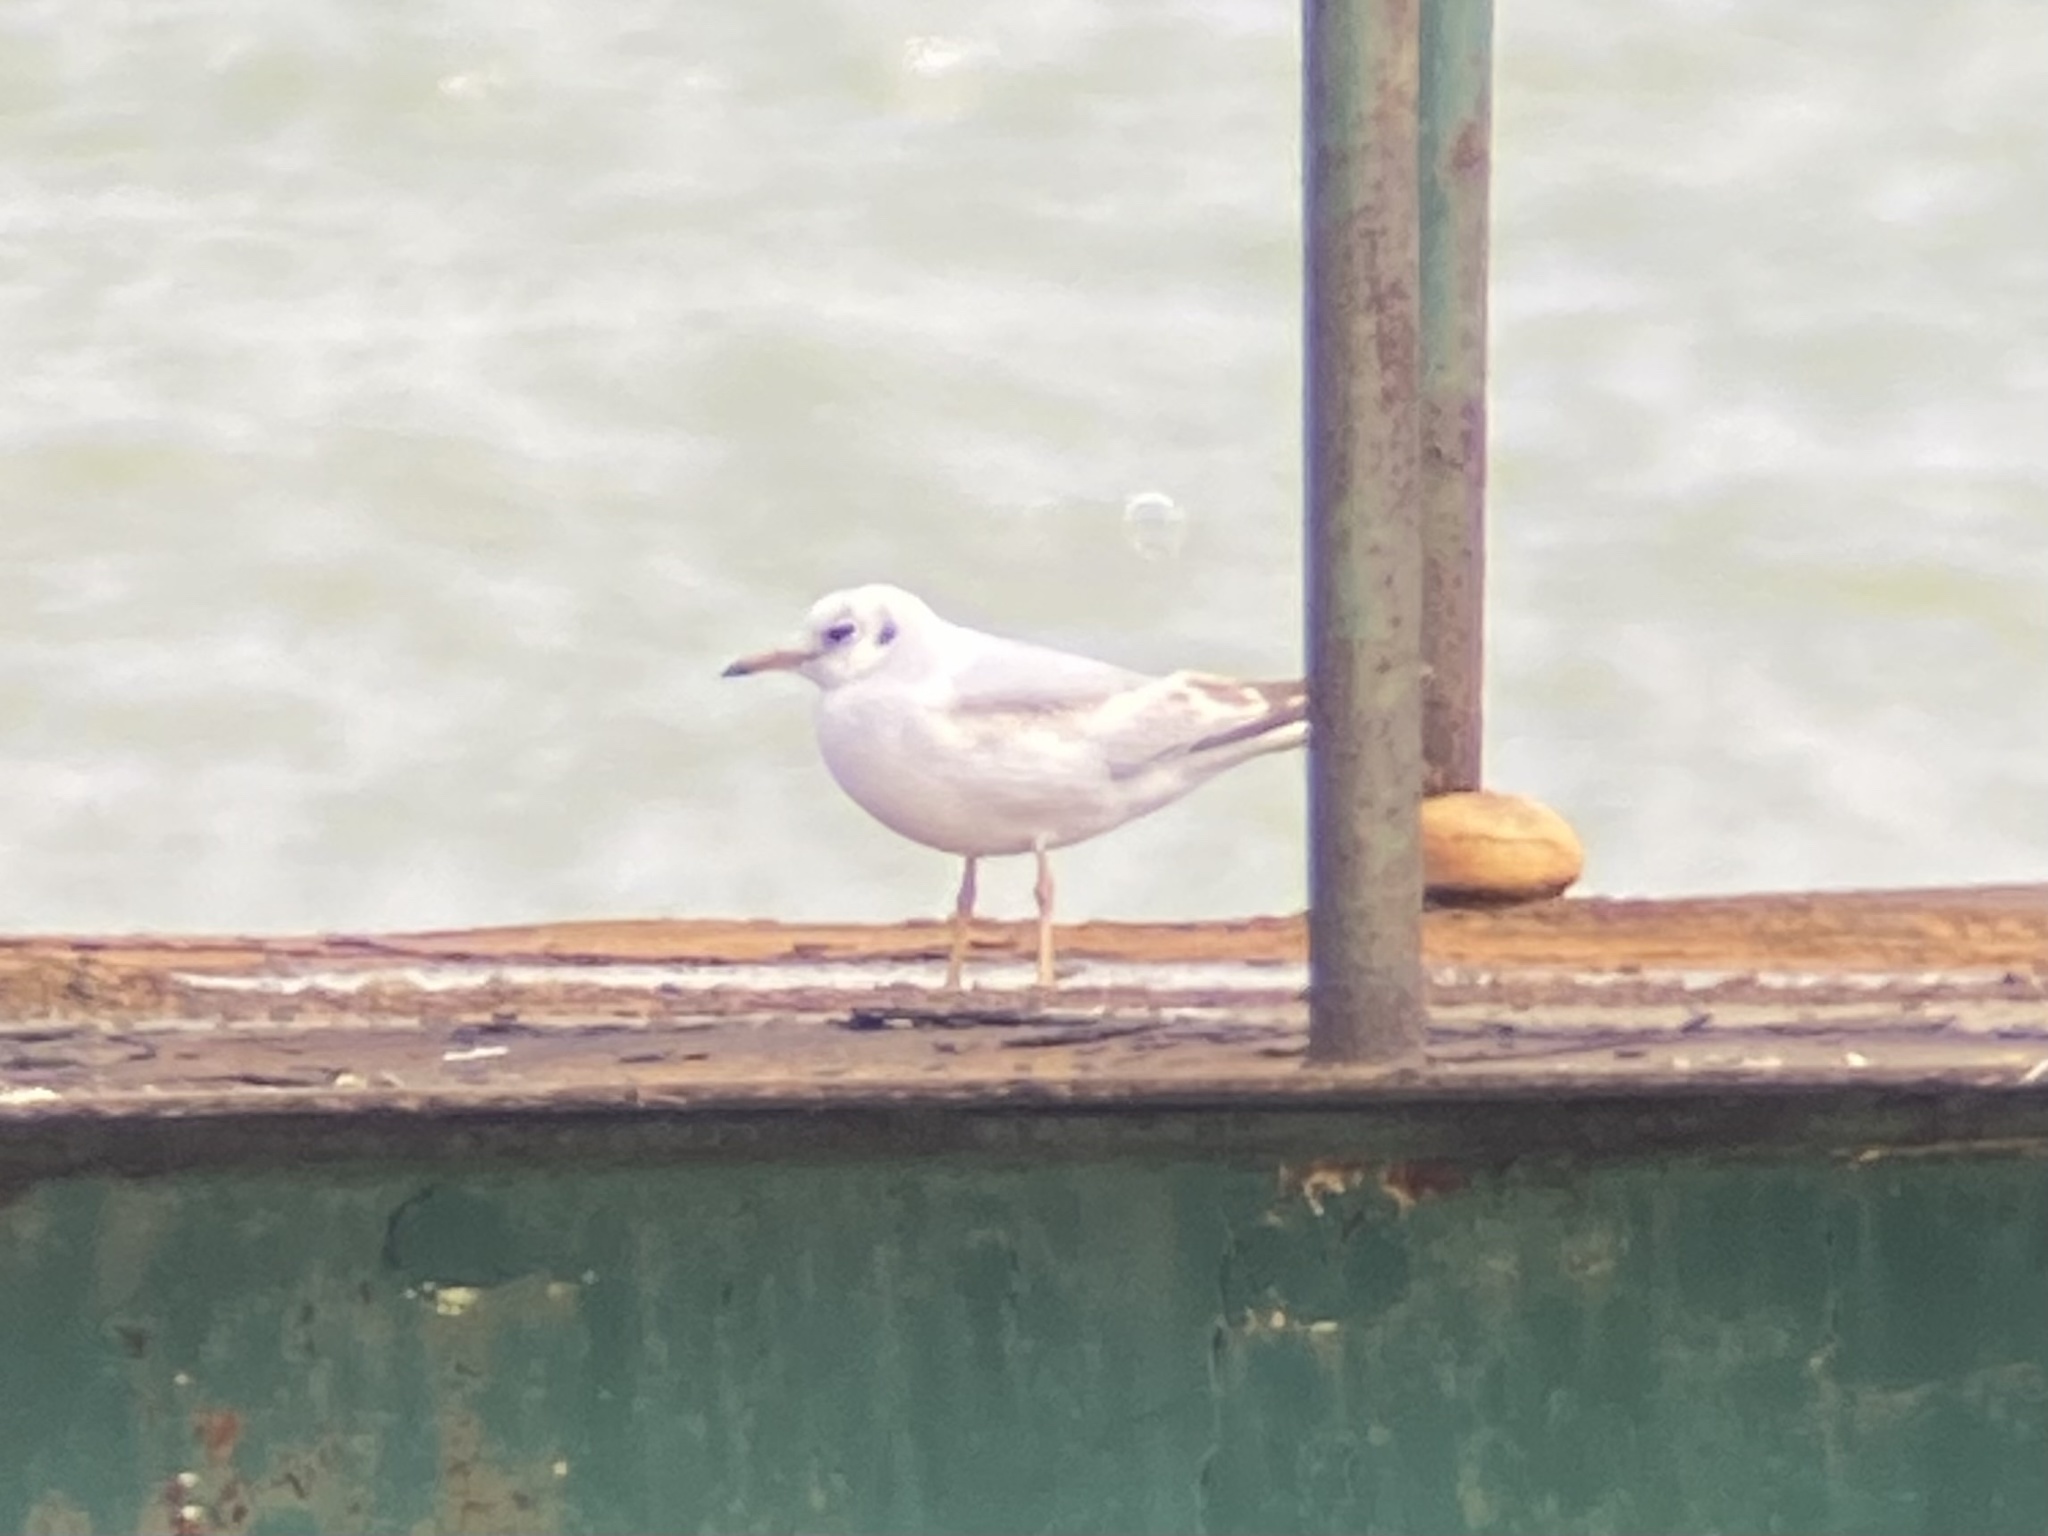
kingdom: Animalia
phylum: Chordata
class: Aves
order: Charadriiformes
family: Laridae
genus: Chroicocephalus
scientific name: Chroicocephalus ridibundus
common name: Black-headed gull
